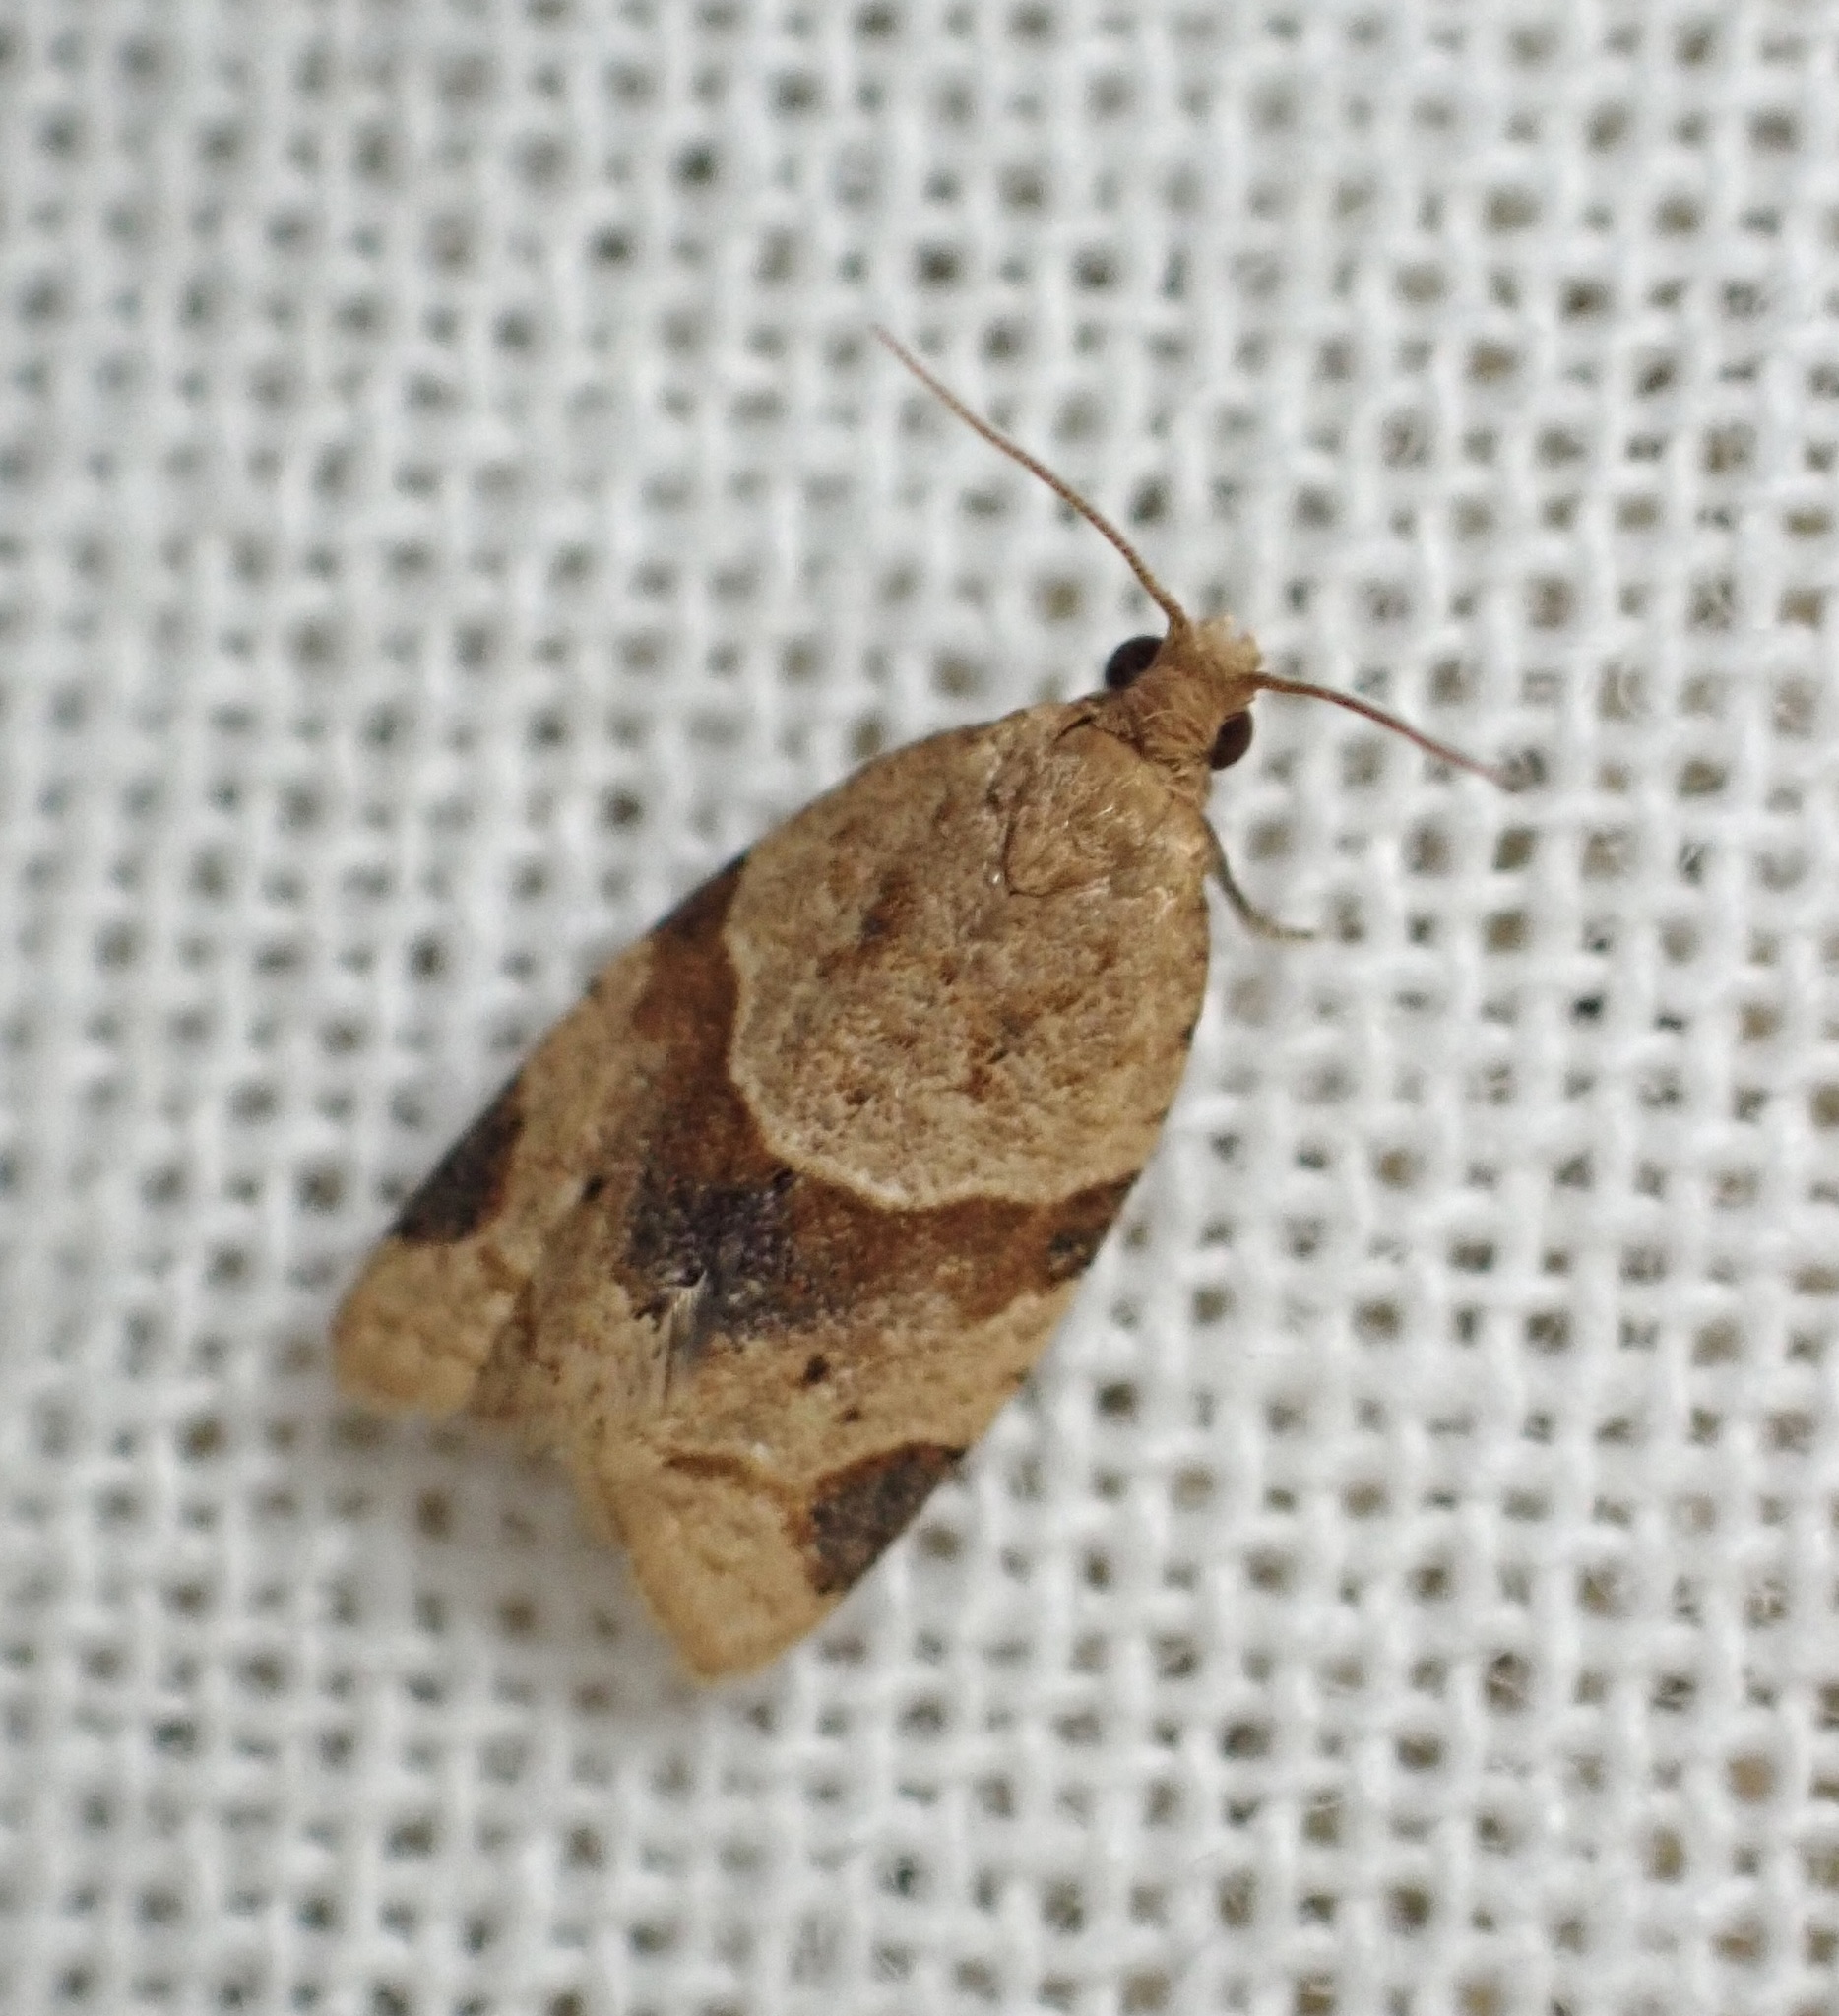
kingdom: Animalia
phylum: Arthropoda
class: Insecta
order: Lepidoptera
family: Tortricidae
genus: Clepsis
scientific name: Clepsis peritana
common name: Garden tortrix
